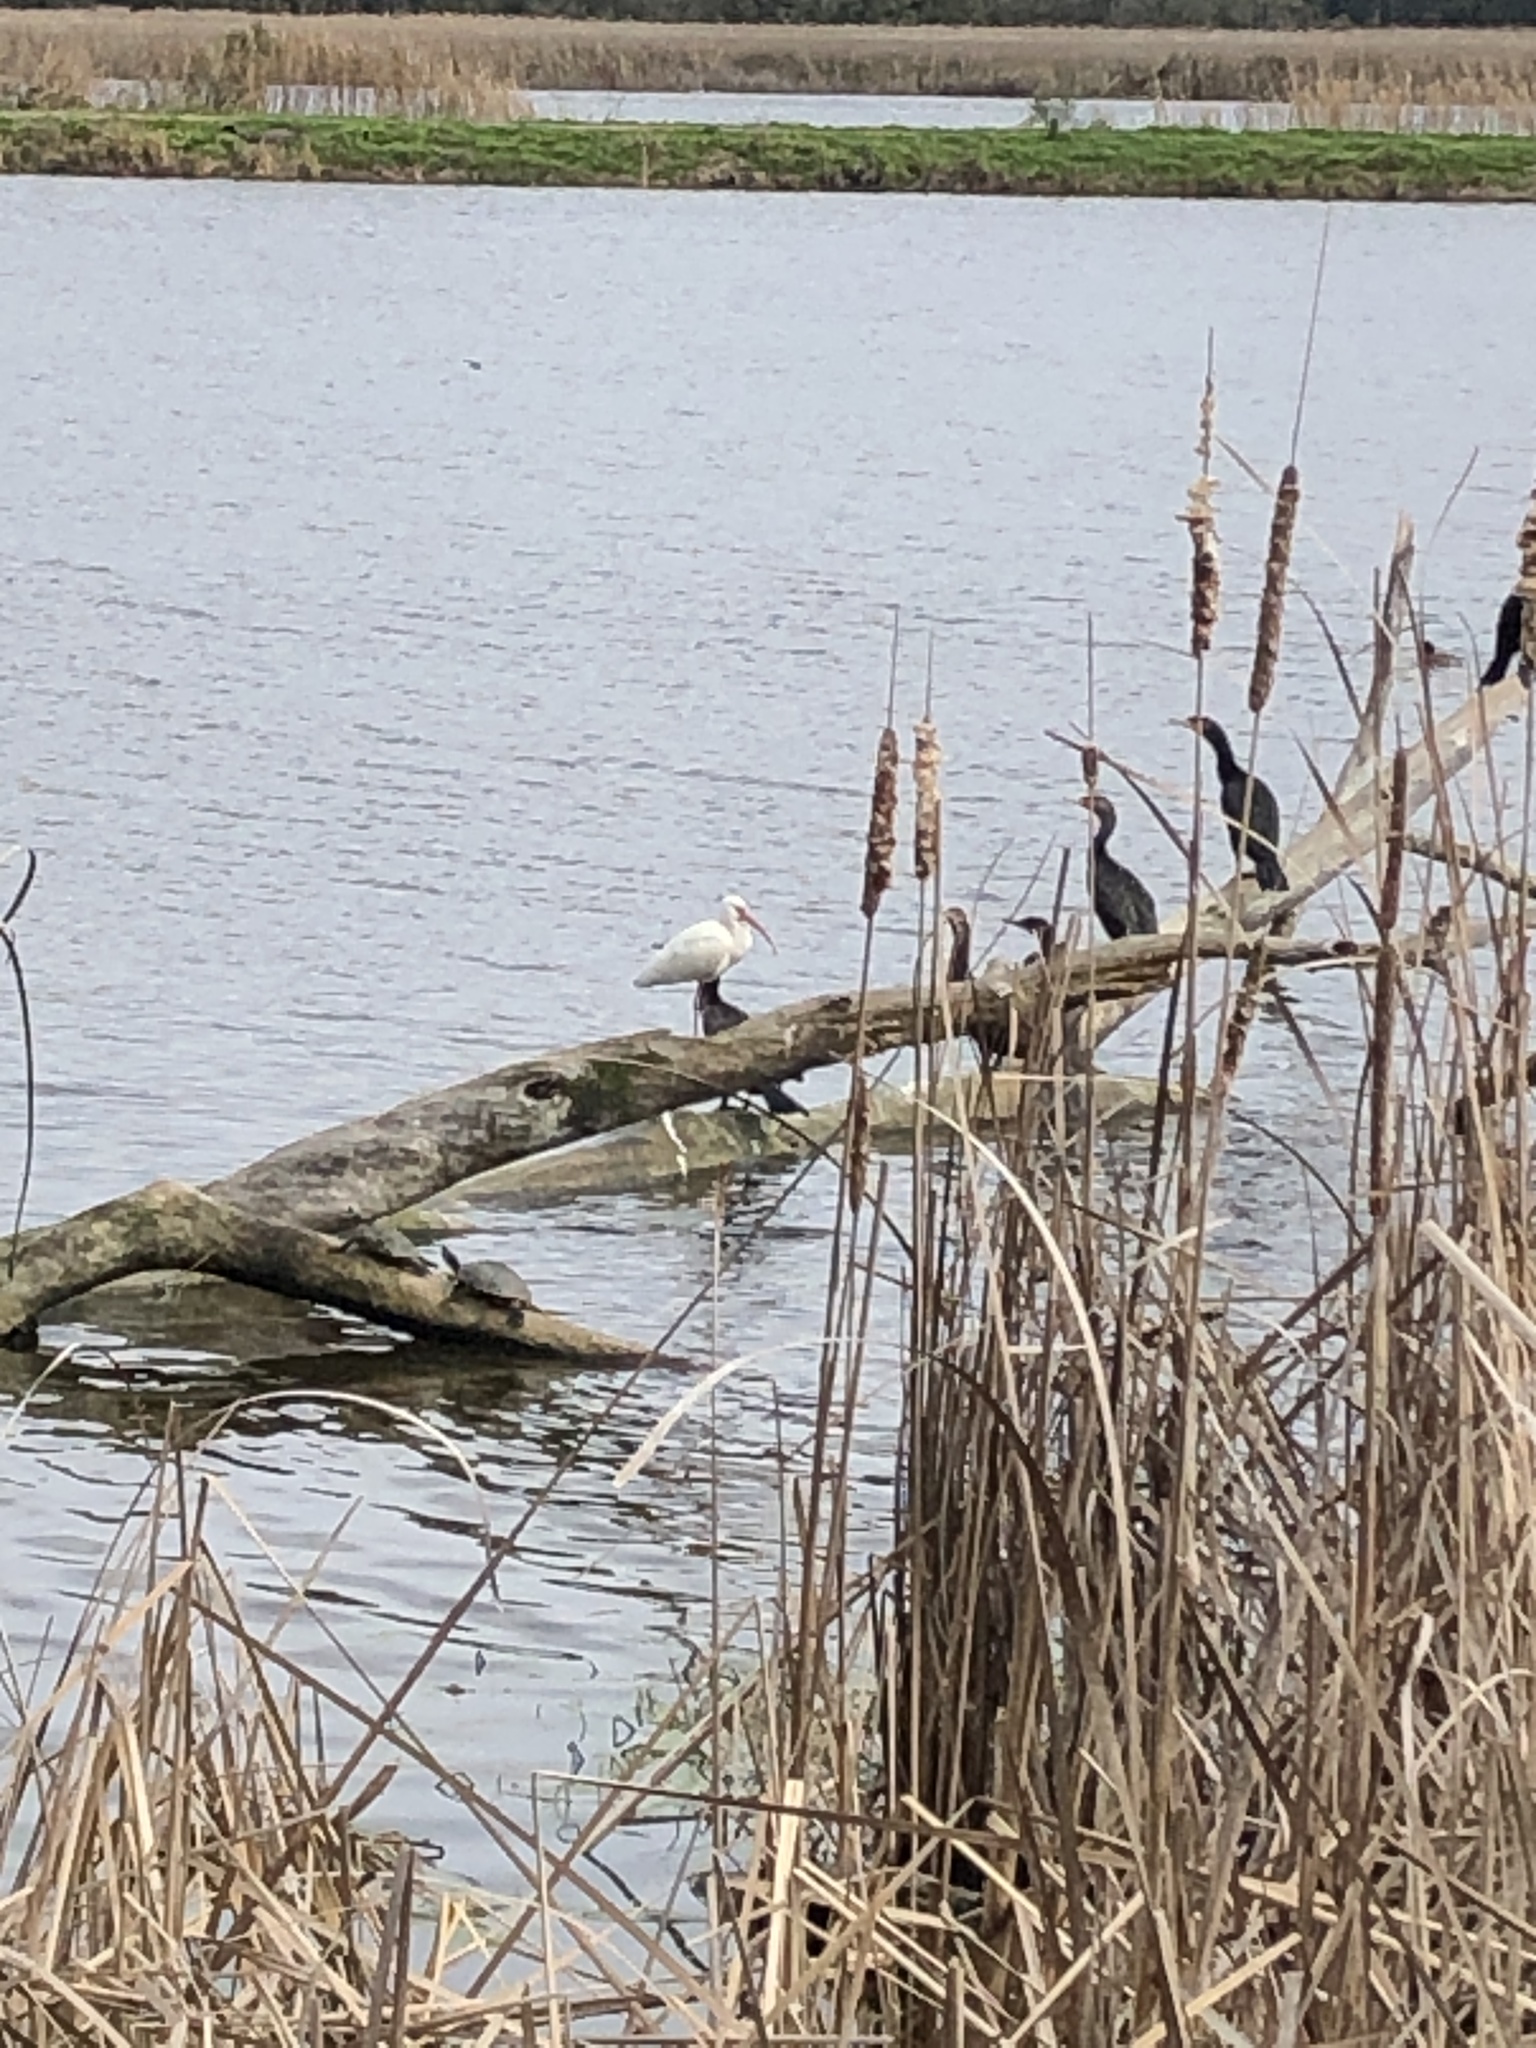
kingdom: Animalia
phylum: Chordata
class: Aves
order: Pelecaniformes
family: Threskiornithidae
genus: Eudocimus
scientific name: Eudocimus albus
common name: White ibis
